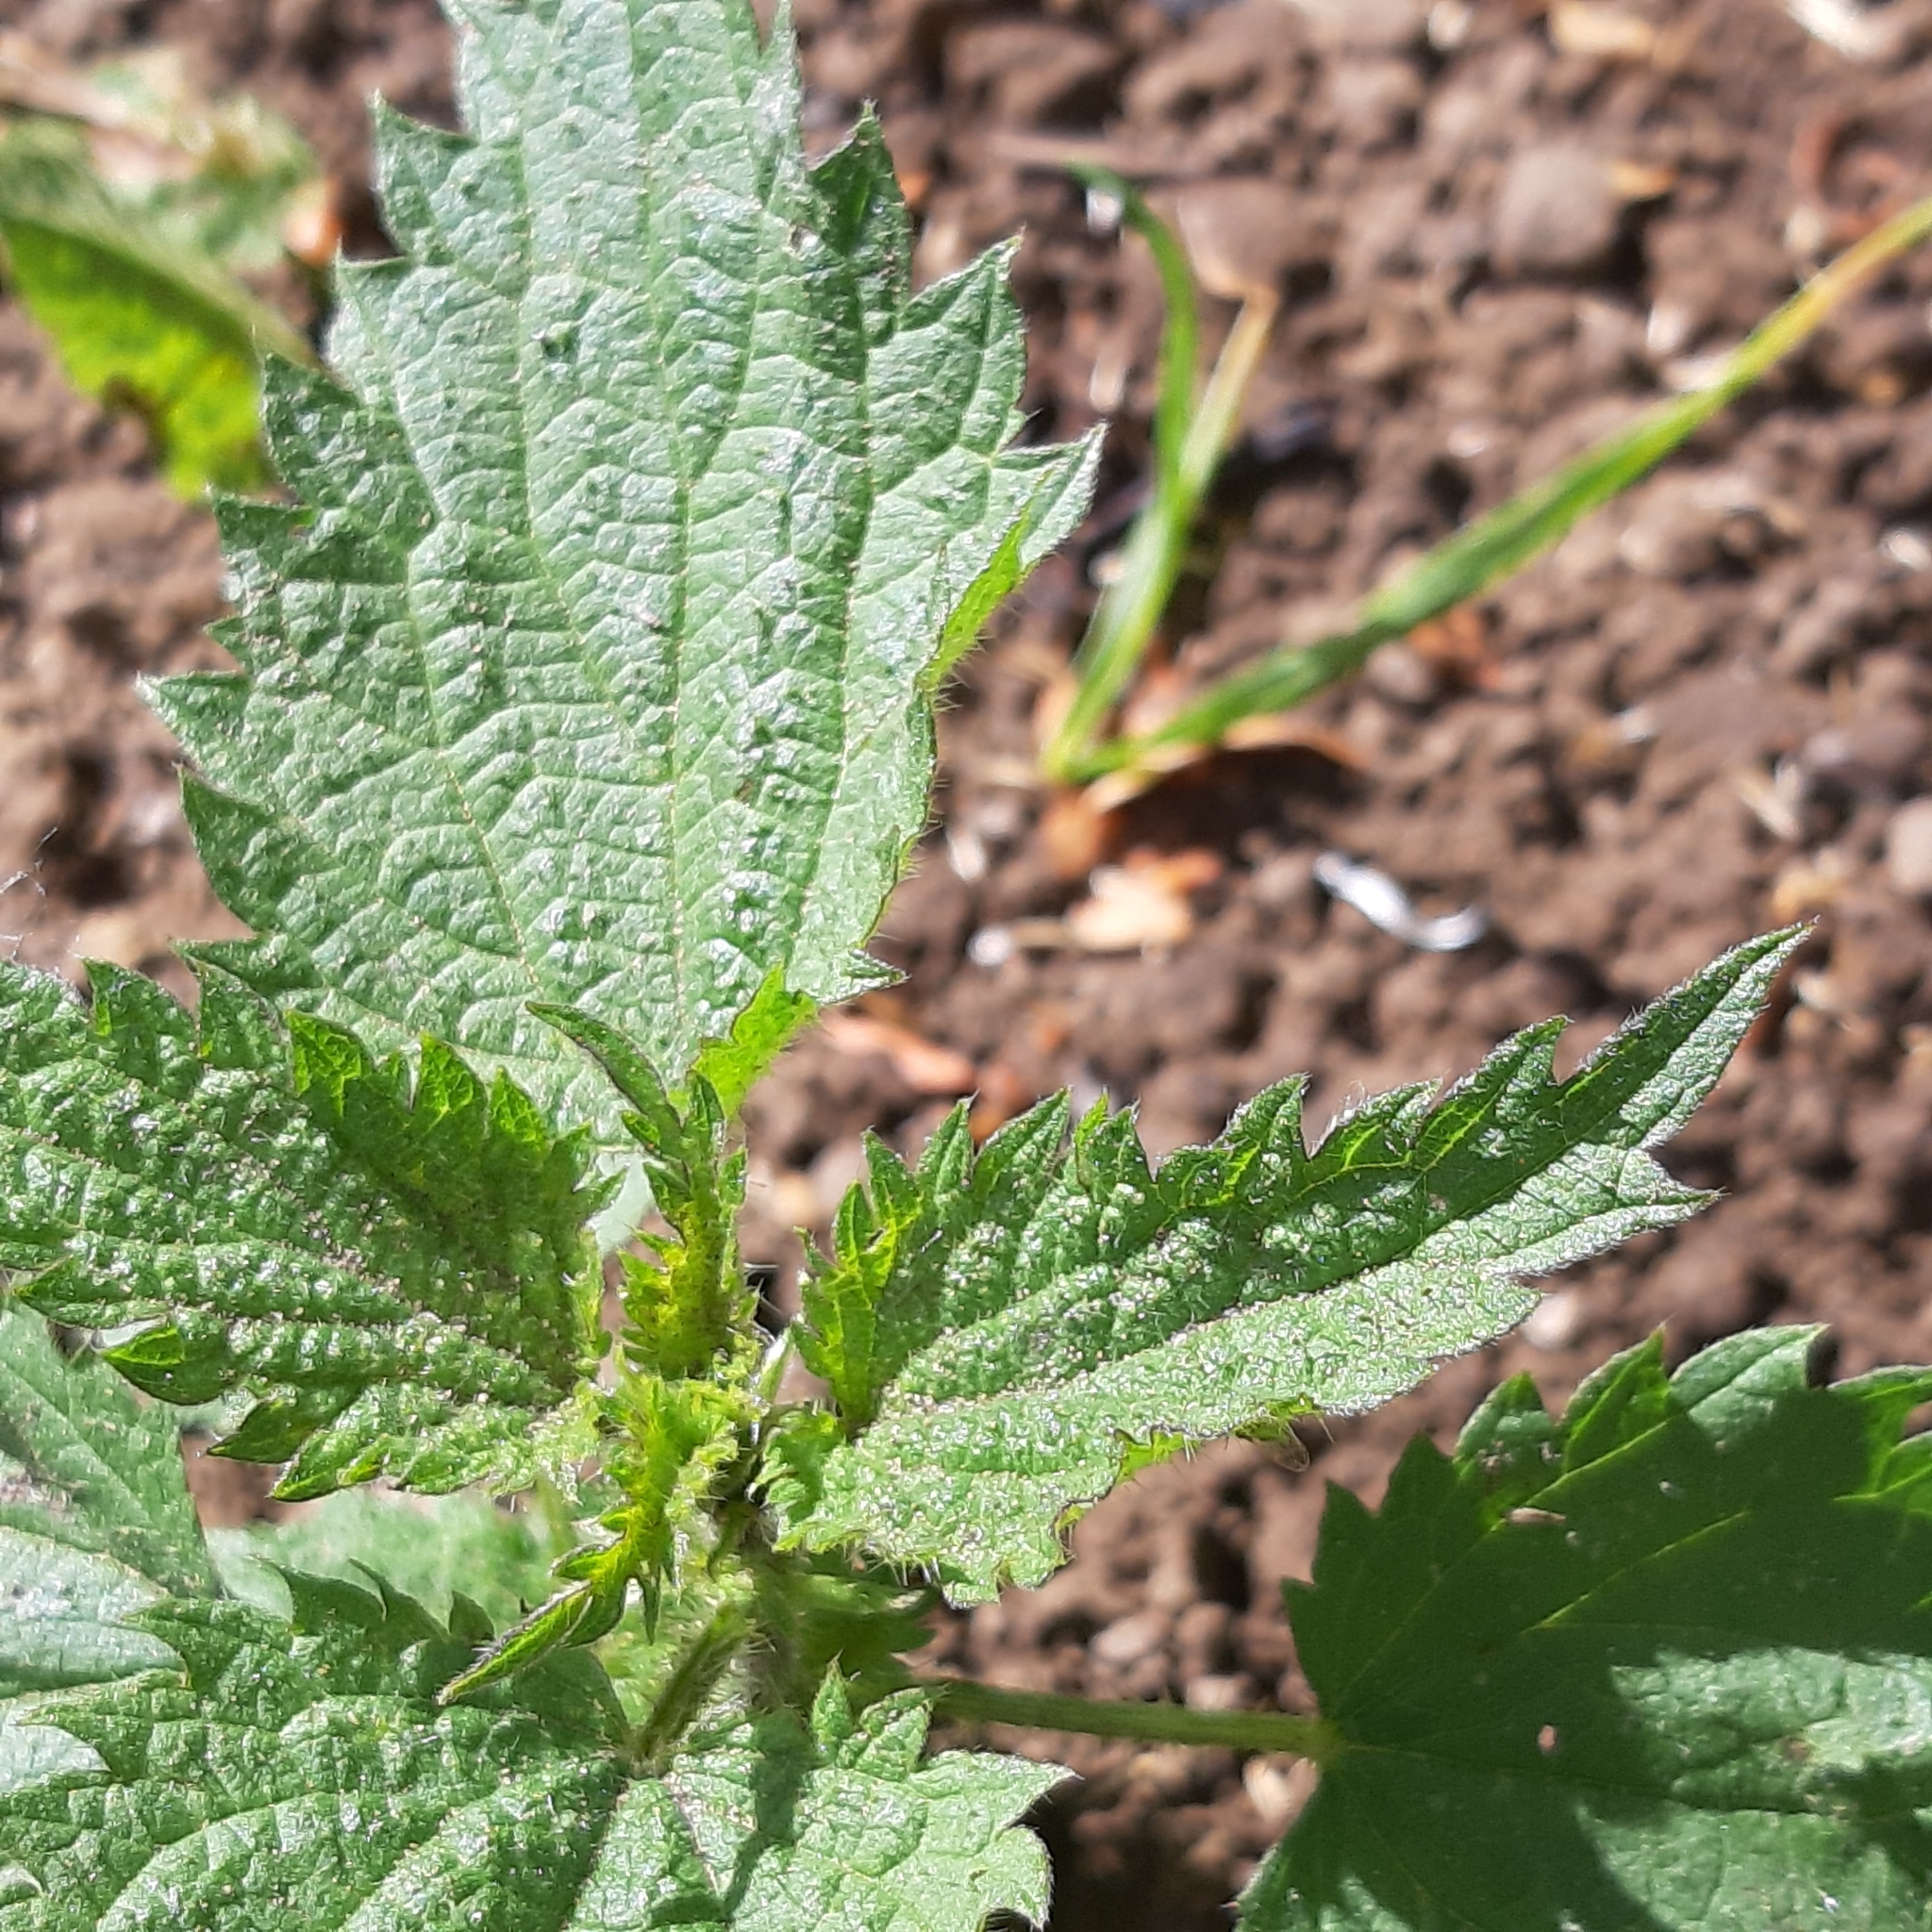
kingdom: Plantae
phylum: Tracheophyta
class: Magnoliopsida
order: Rosales
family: Urticaceae
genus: Urtica
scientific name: Urtica dioica
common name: Common nettle
